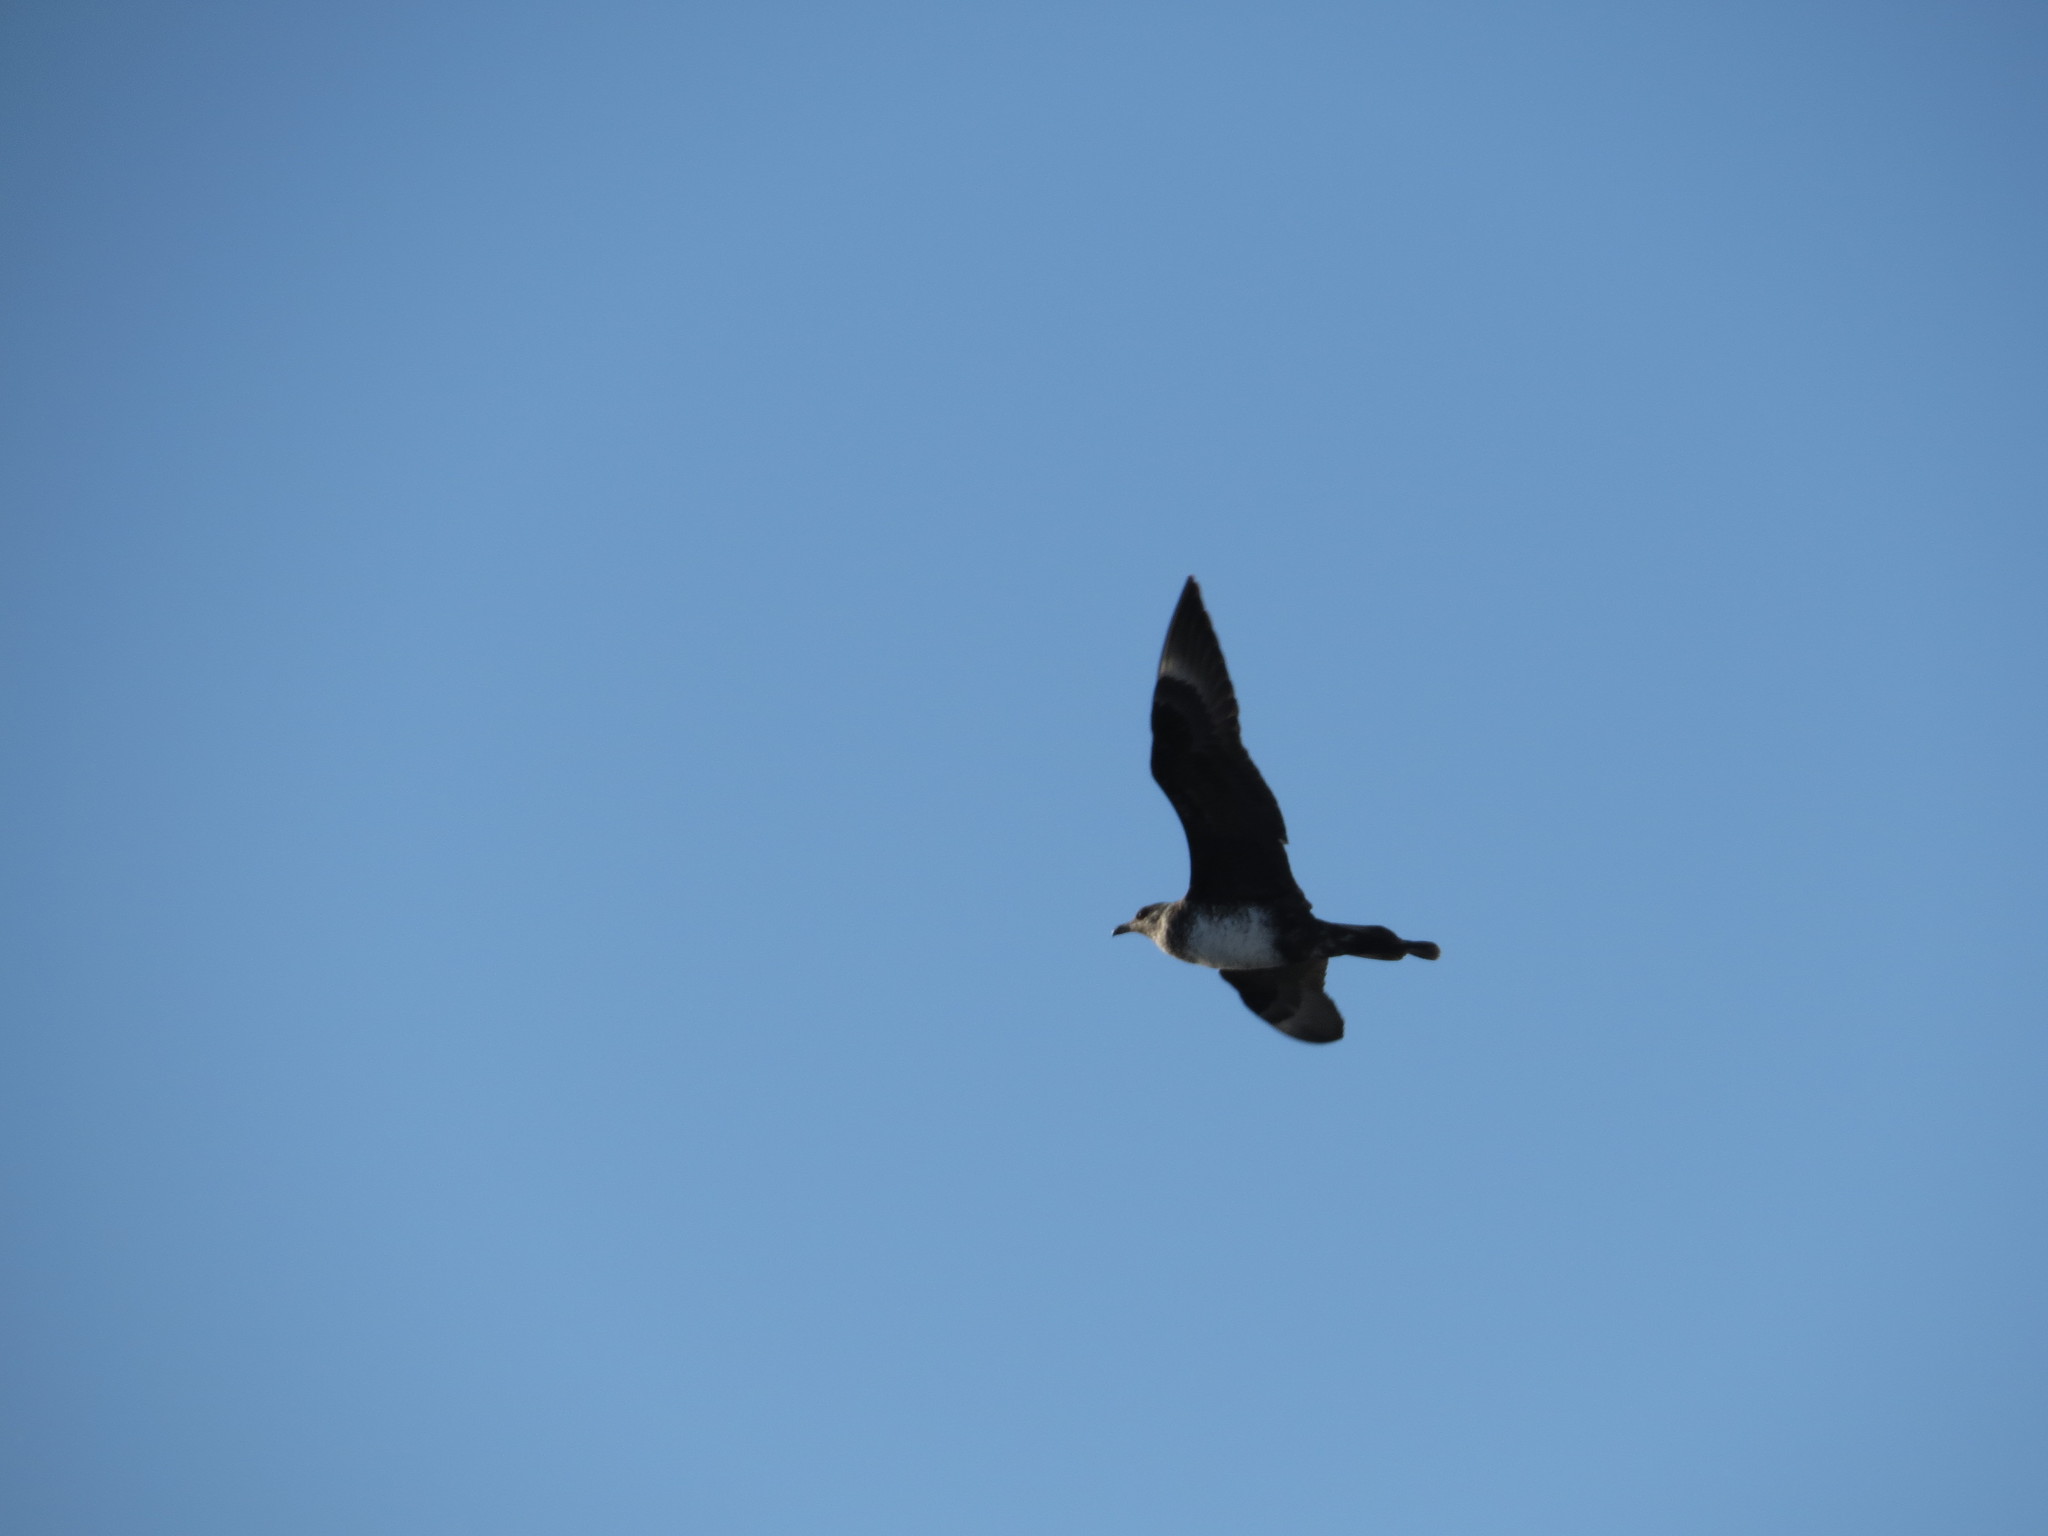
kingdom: Animalia
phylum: Chordata
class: Aves
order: Charadriiformes
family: Stercorariidae
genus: Stercorarius
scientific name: Stercorarius pomarinus
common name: Pomarine jaeger
